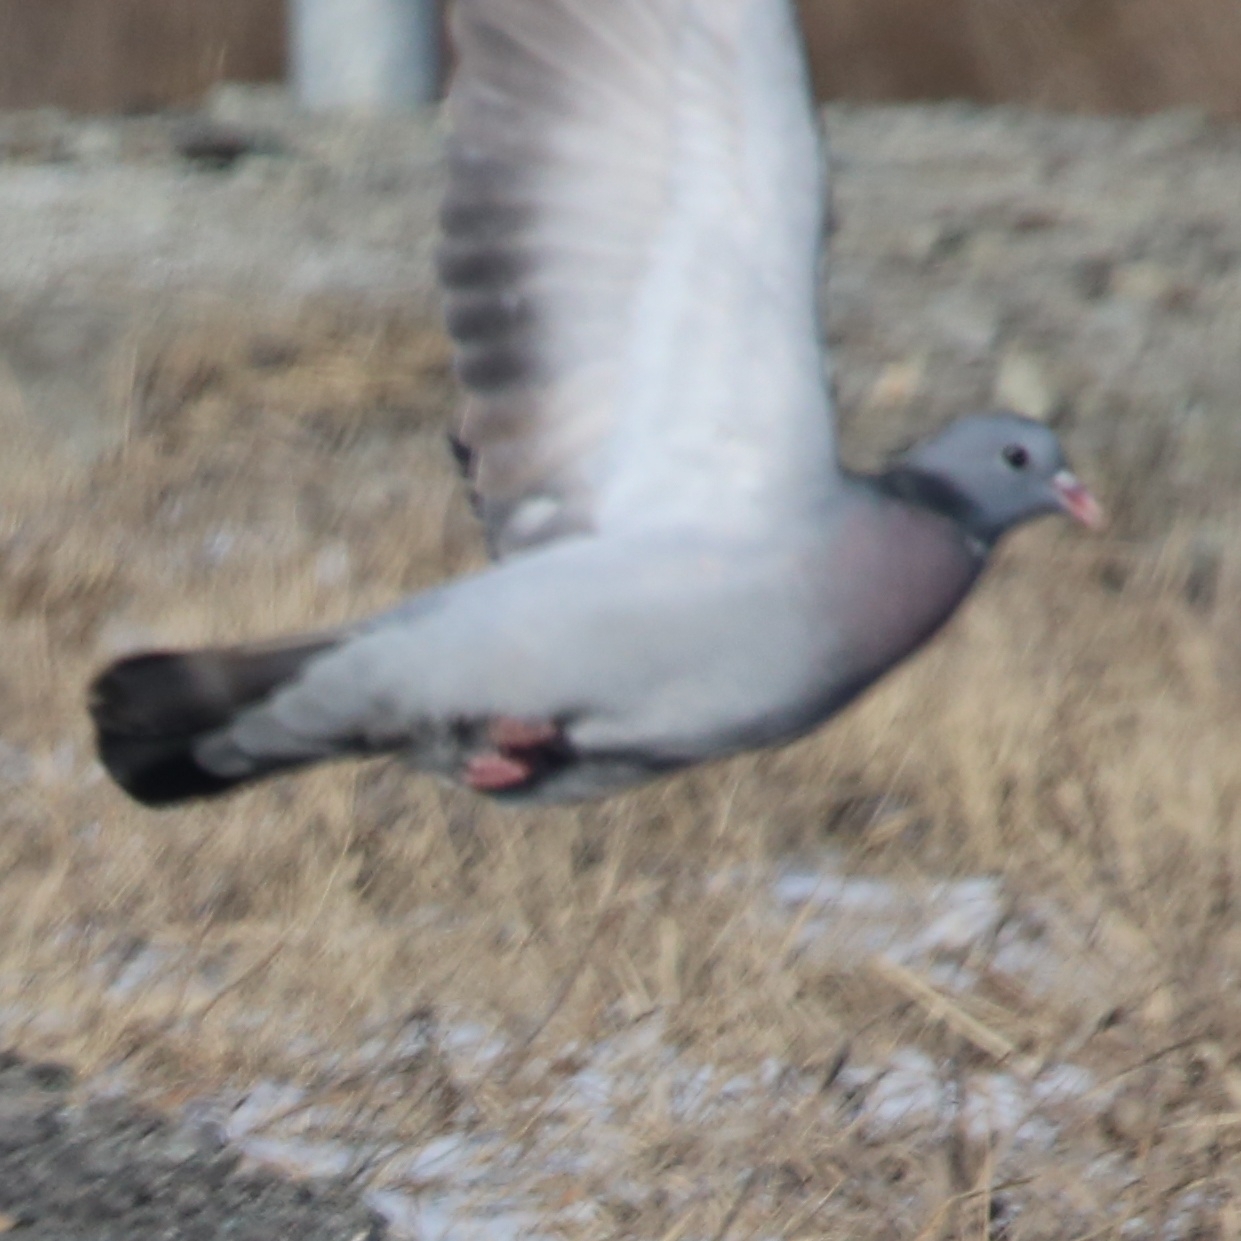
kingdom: Animalia
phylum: Chordata
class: Aves
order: Columbiformes
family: Columbidae
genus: Columba
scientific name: Columba oenas
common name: Stock dove
